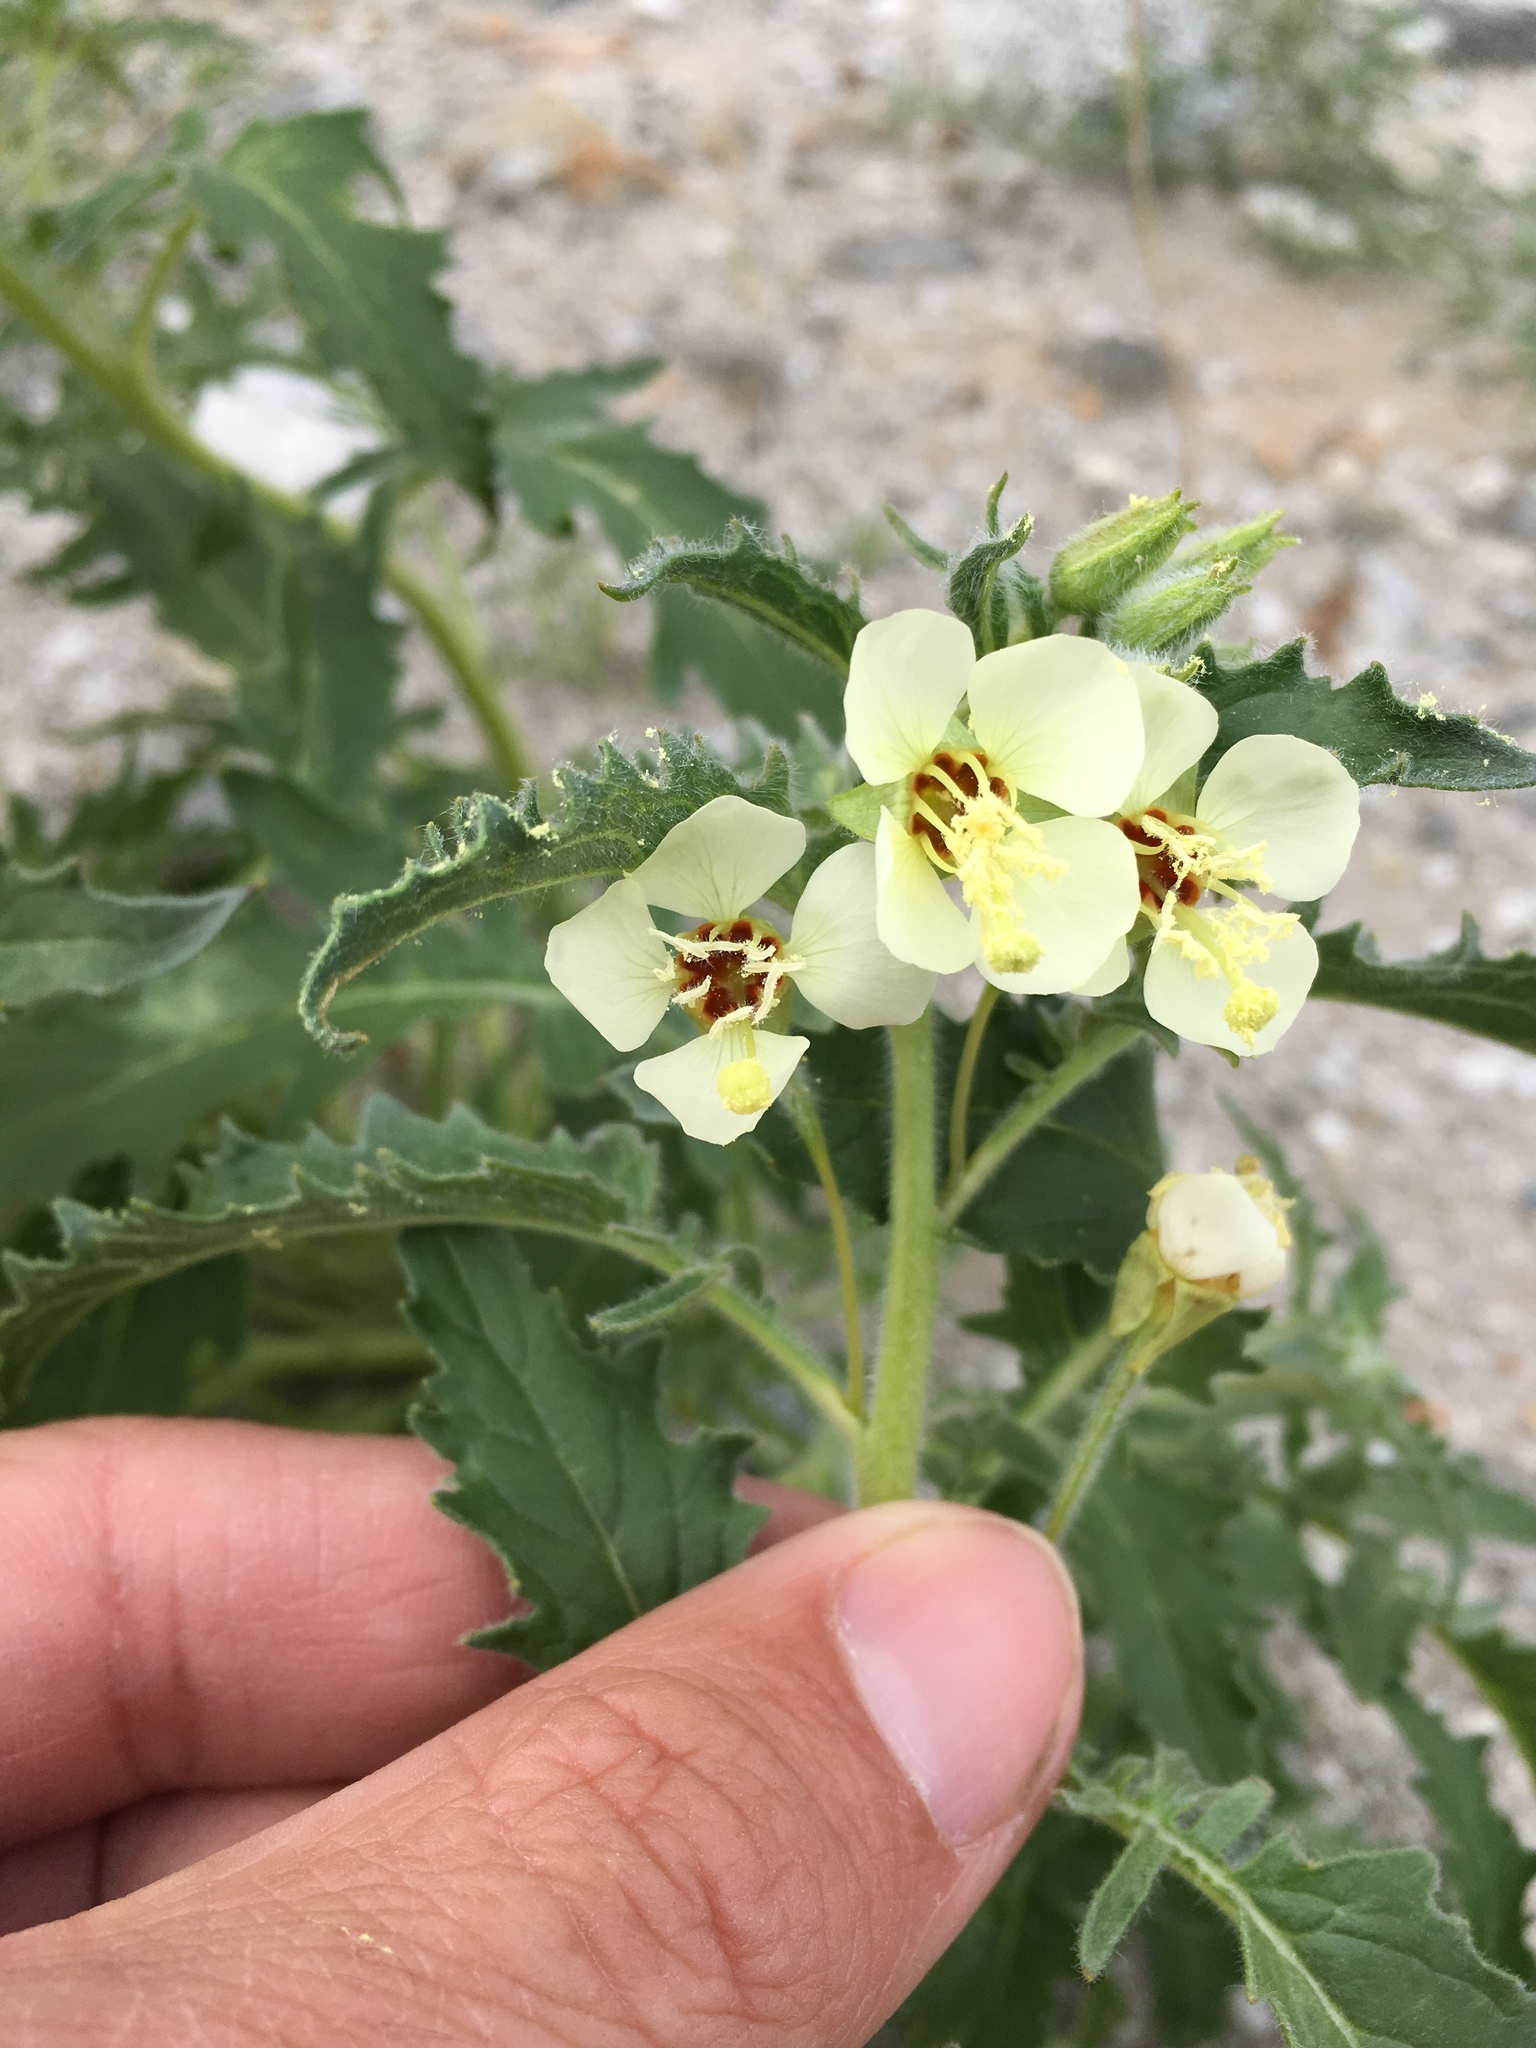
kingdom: Plantae
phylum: Tracheophyta
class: Magnoliopsida
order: Myrtales
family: Onagraceae
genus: Chylismia
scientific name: Chylismia claviformis
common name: Browneyes
